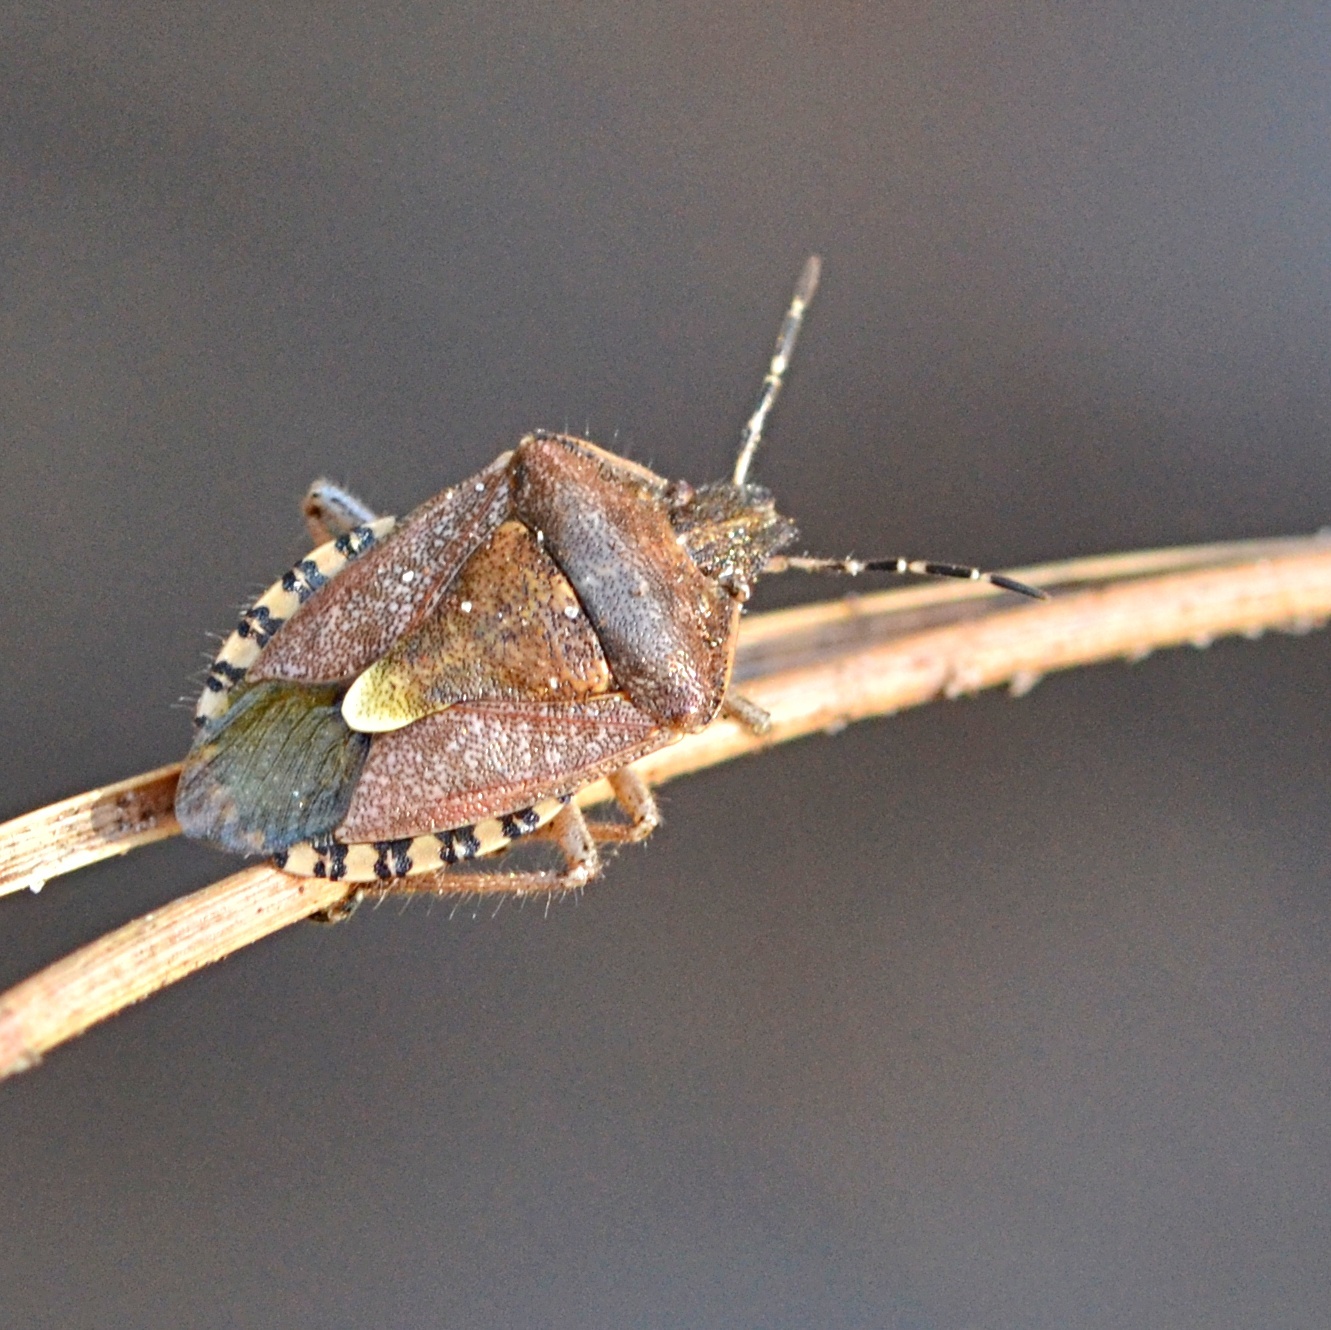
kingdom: Animalia
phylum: Arthropoda
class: Insecta
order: Hemiptera
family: Pentatomidae
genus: Dolycoris
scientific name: Dolycoris baccarum
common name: Sloe bug
